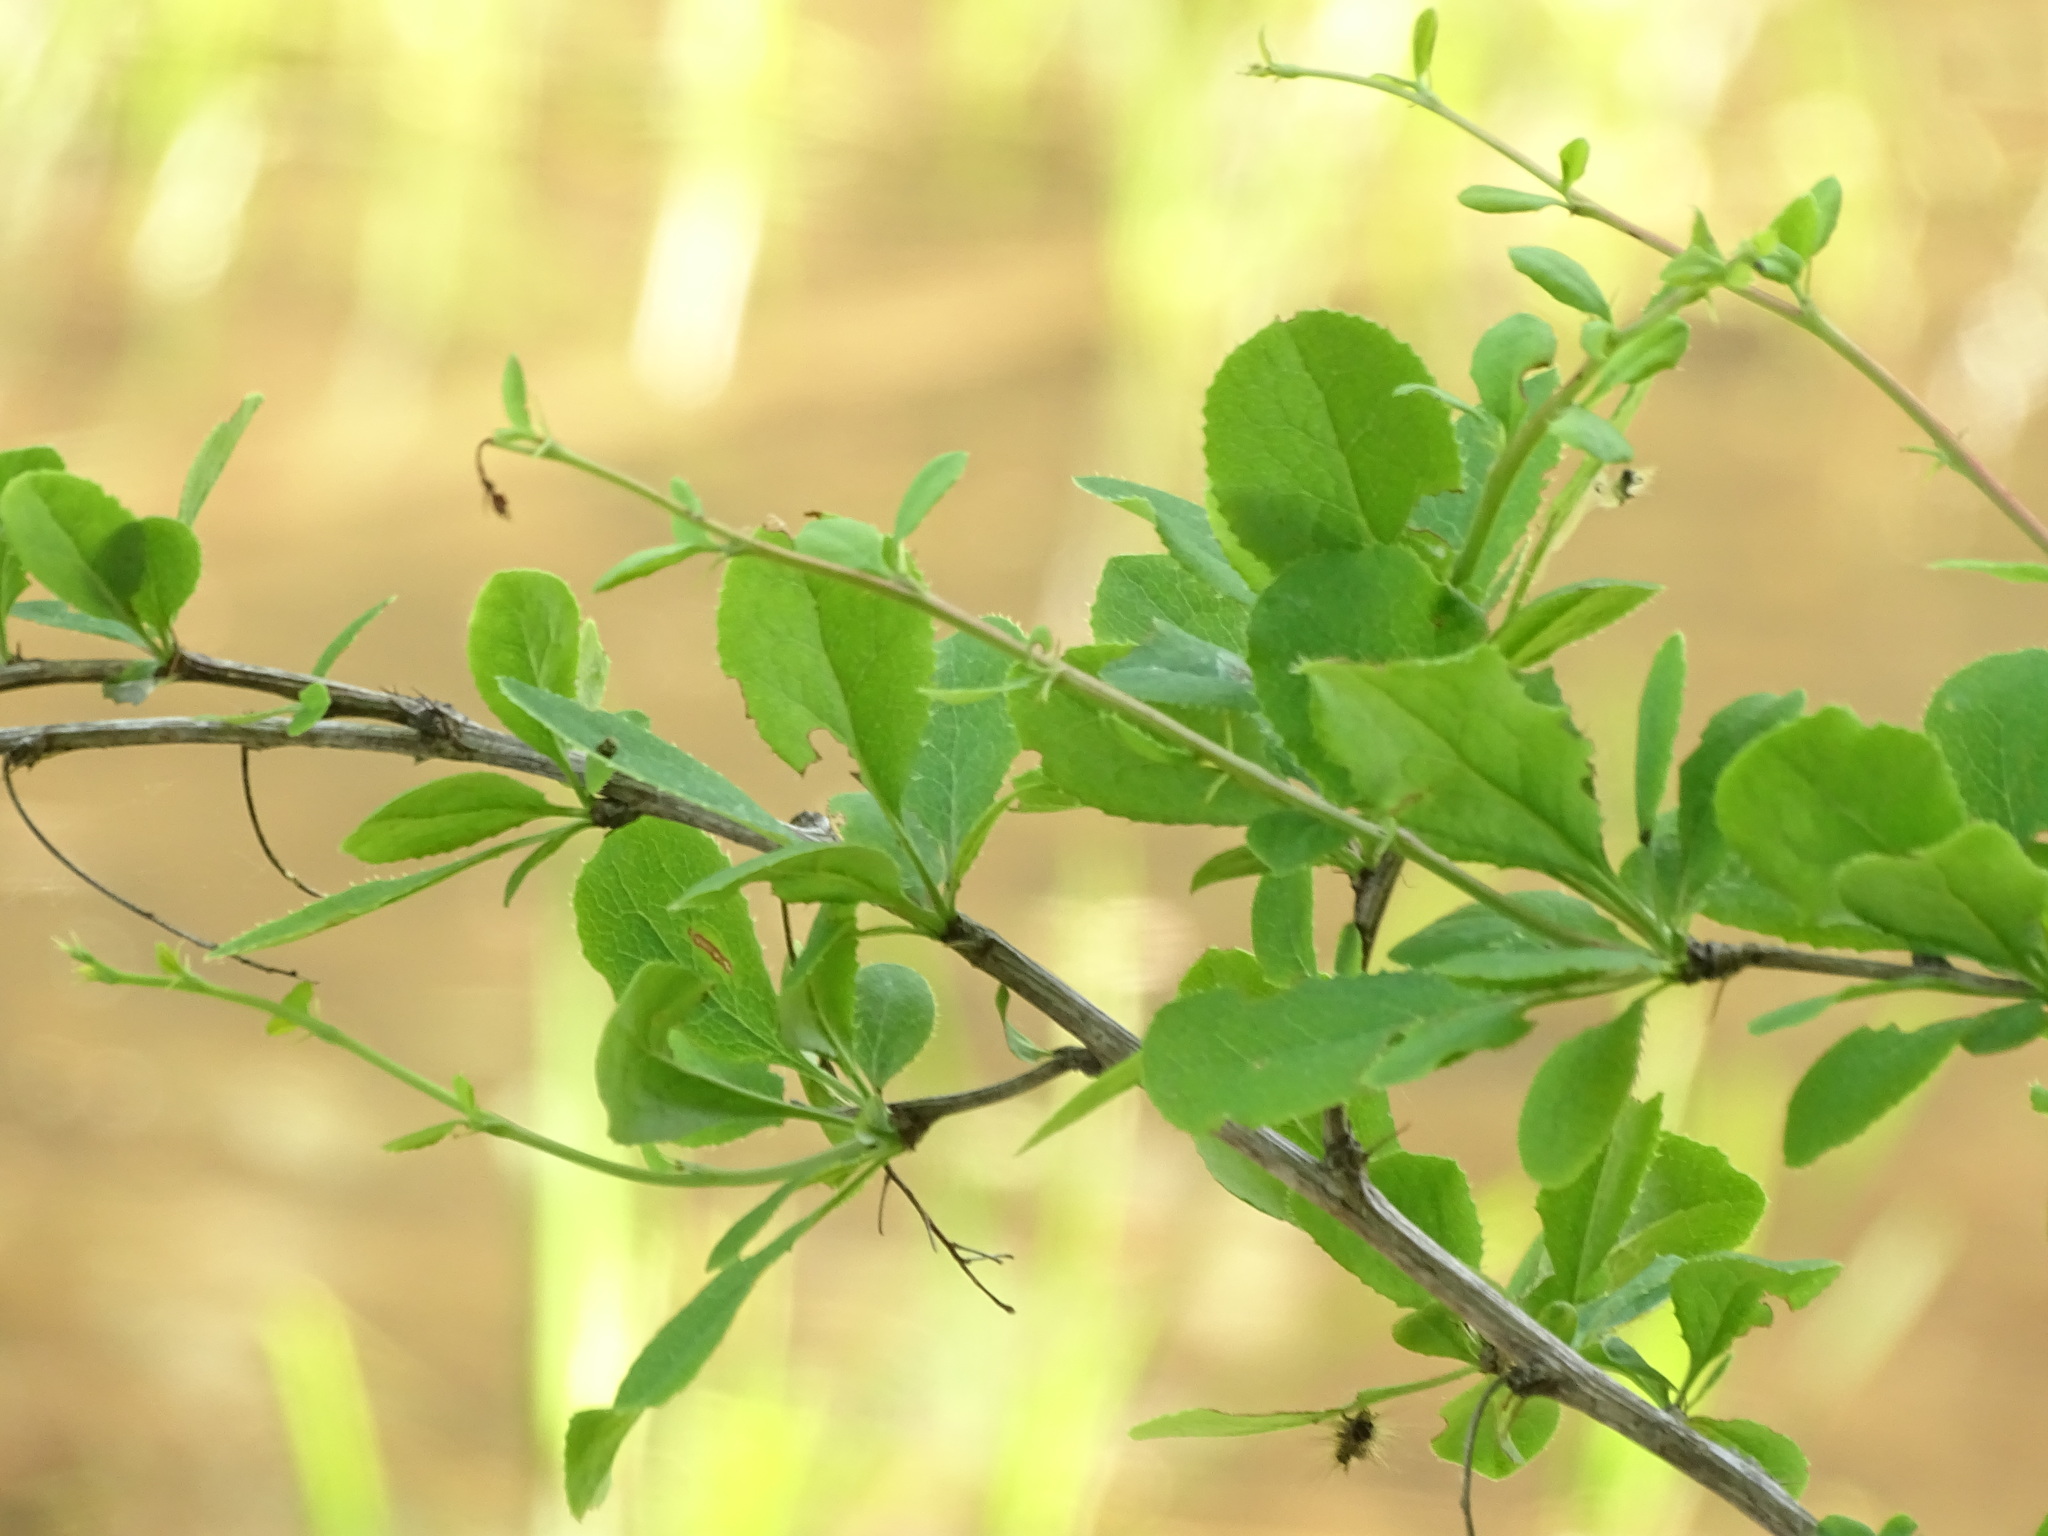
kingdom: Plantae
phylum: Tracheophyta
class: Magnoliopsida
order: Ranunculales
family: Berberidaceae
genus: Berberis
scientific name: Berberis vulgaris
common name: Barberry
